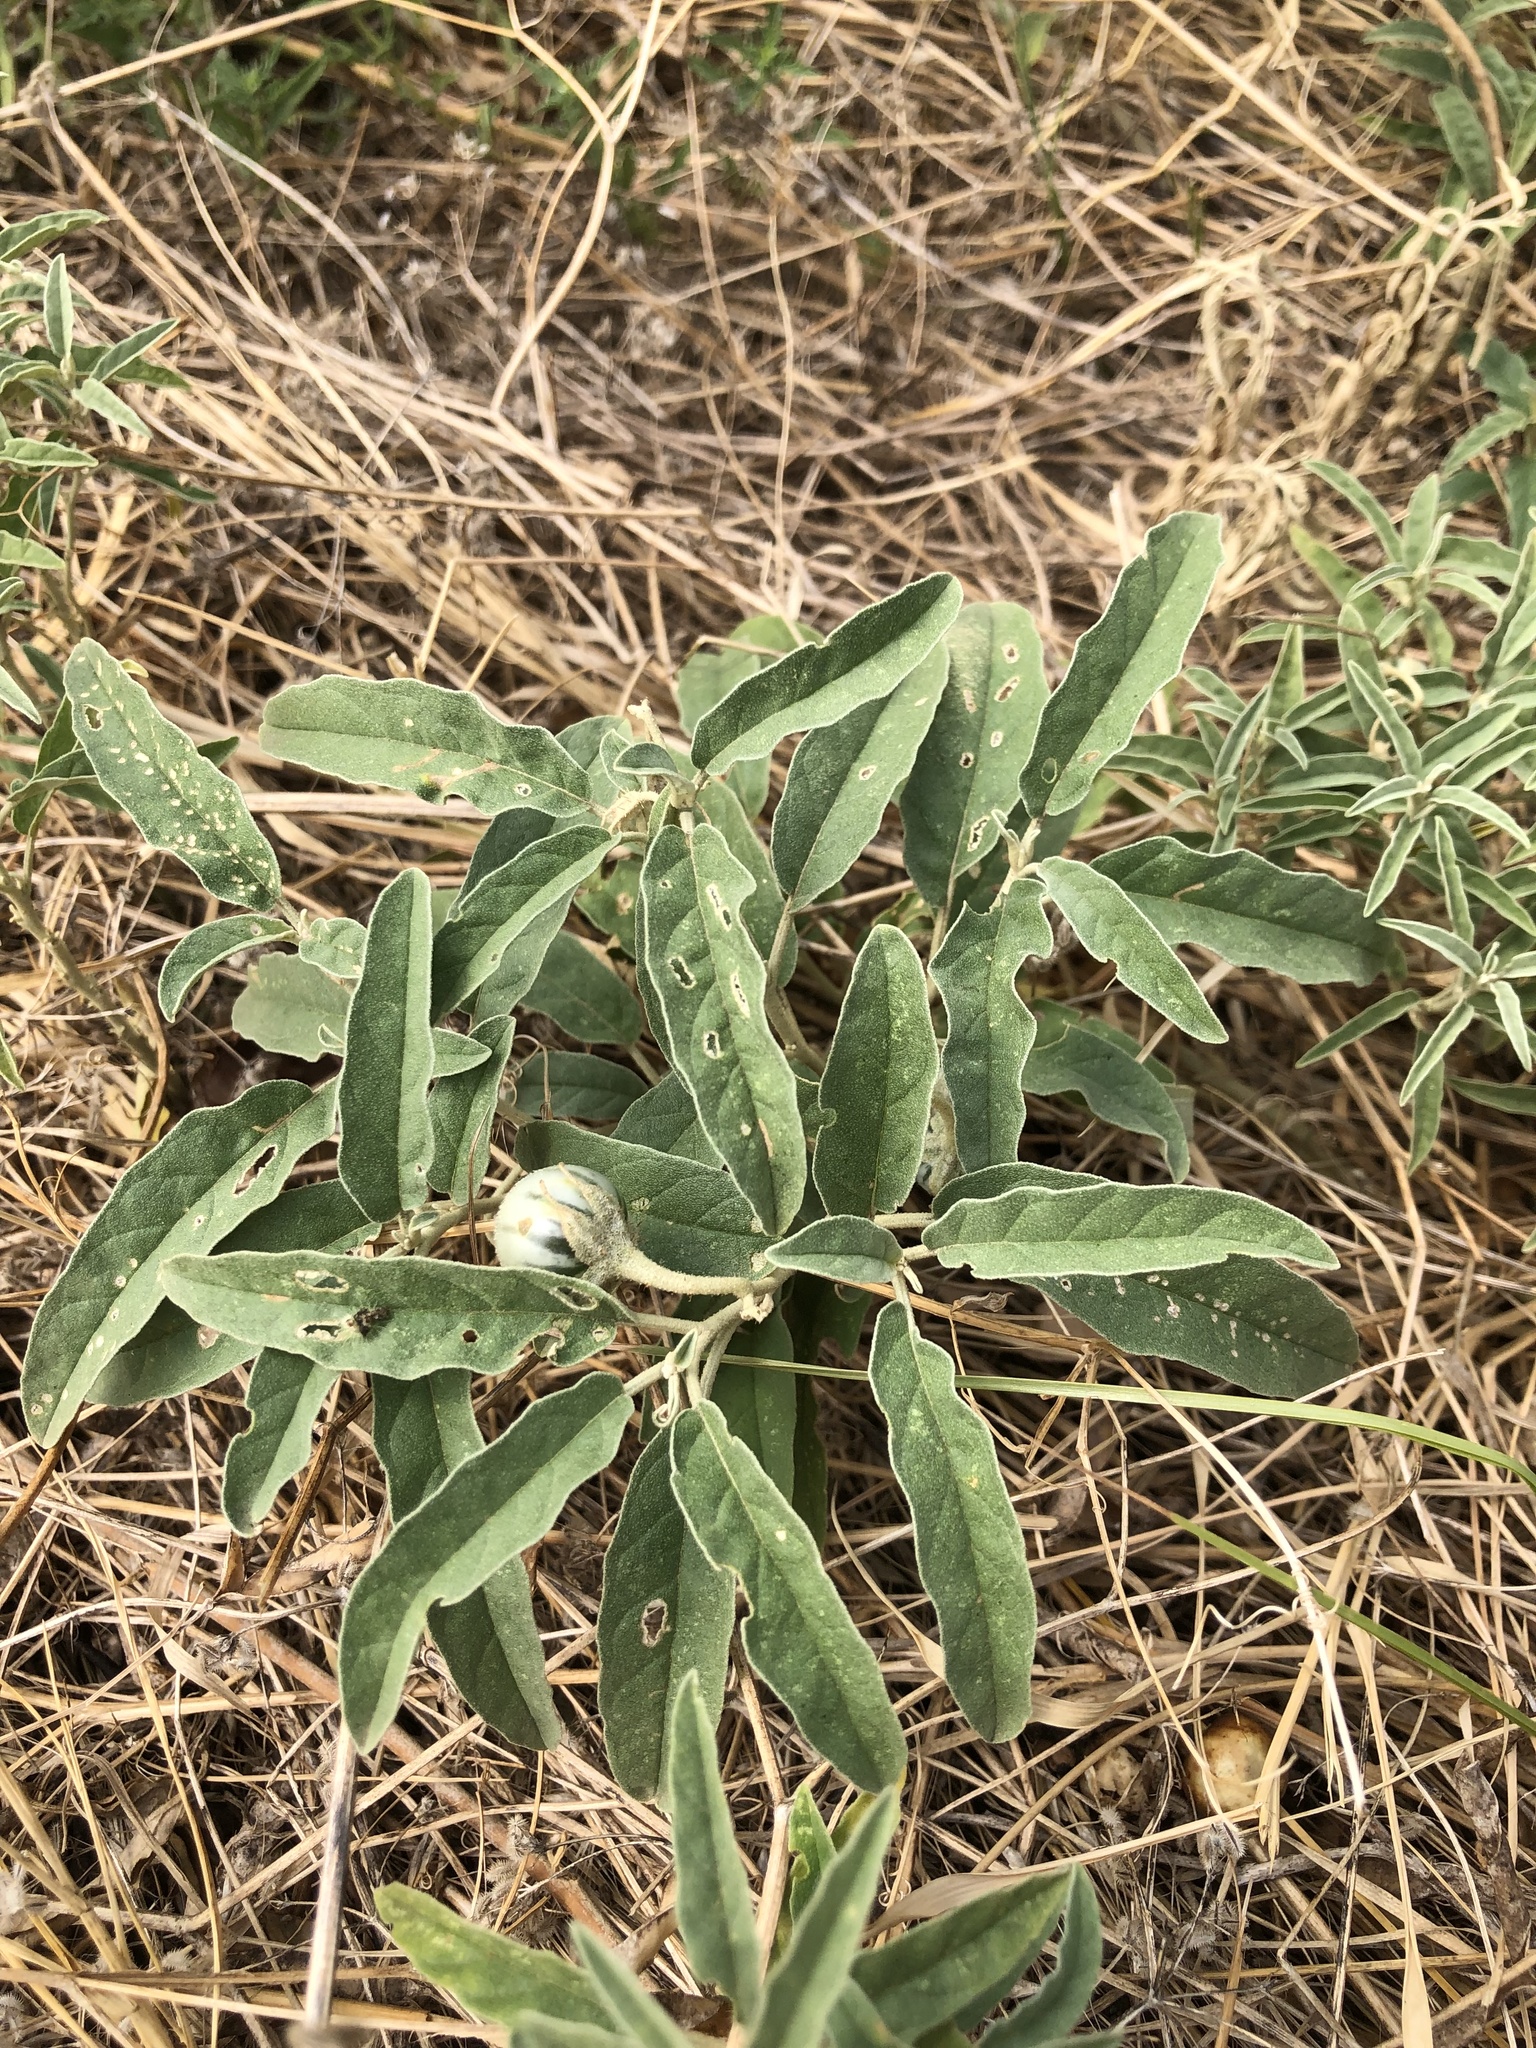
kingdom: Plantae
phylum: Tracheophyta
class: Magnoliopsida
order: Solanales
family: Solanaceae
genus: Solanum
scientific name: Solanum elaeagnifolium
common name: Silverleaf nightshade
